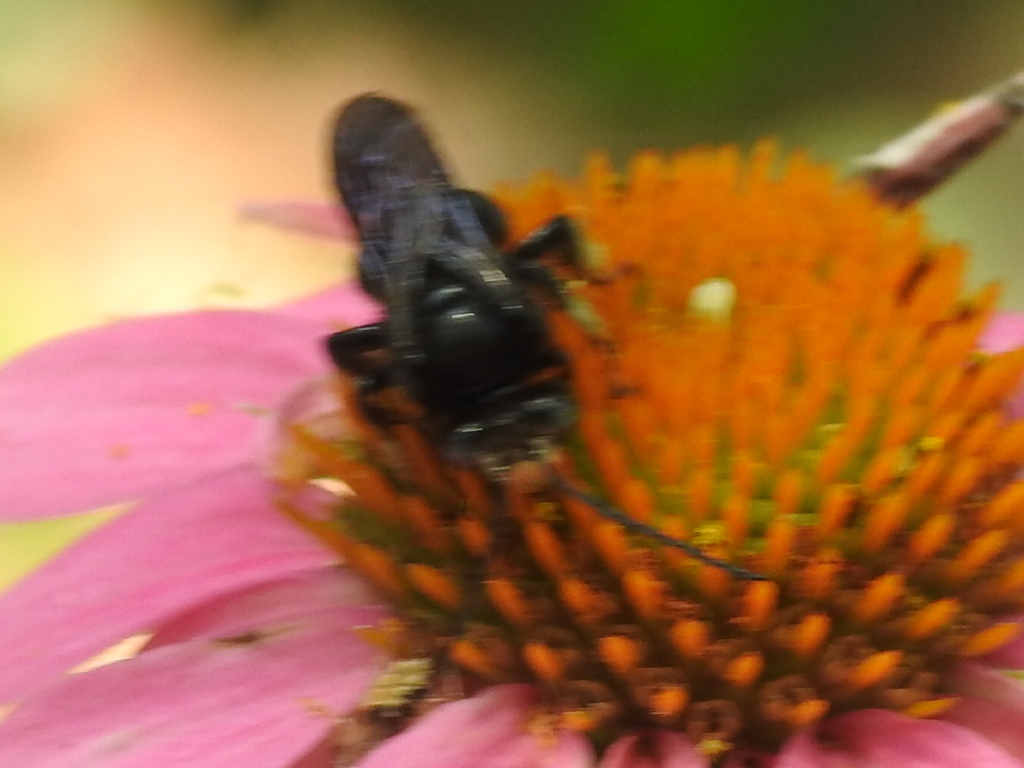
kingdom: Animalia
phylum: Arthropoda
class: Insecta
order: Hymenoptera
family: Apidae
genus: Melissodes
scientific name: Melissodes bimaculatus
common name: Two-spotted long-horned bee
